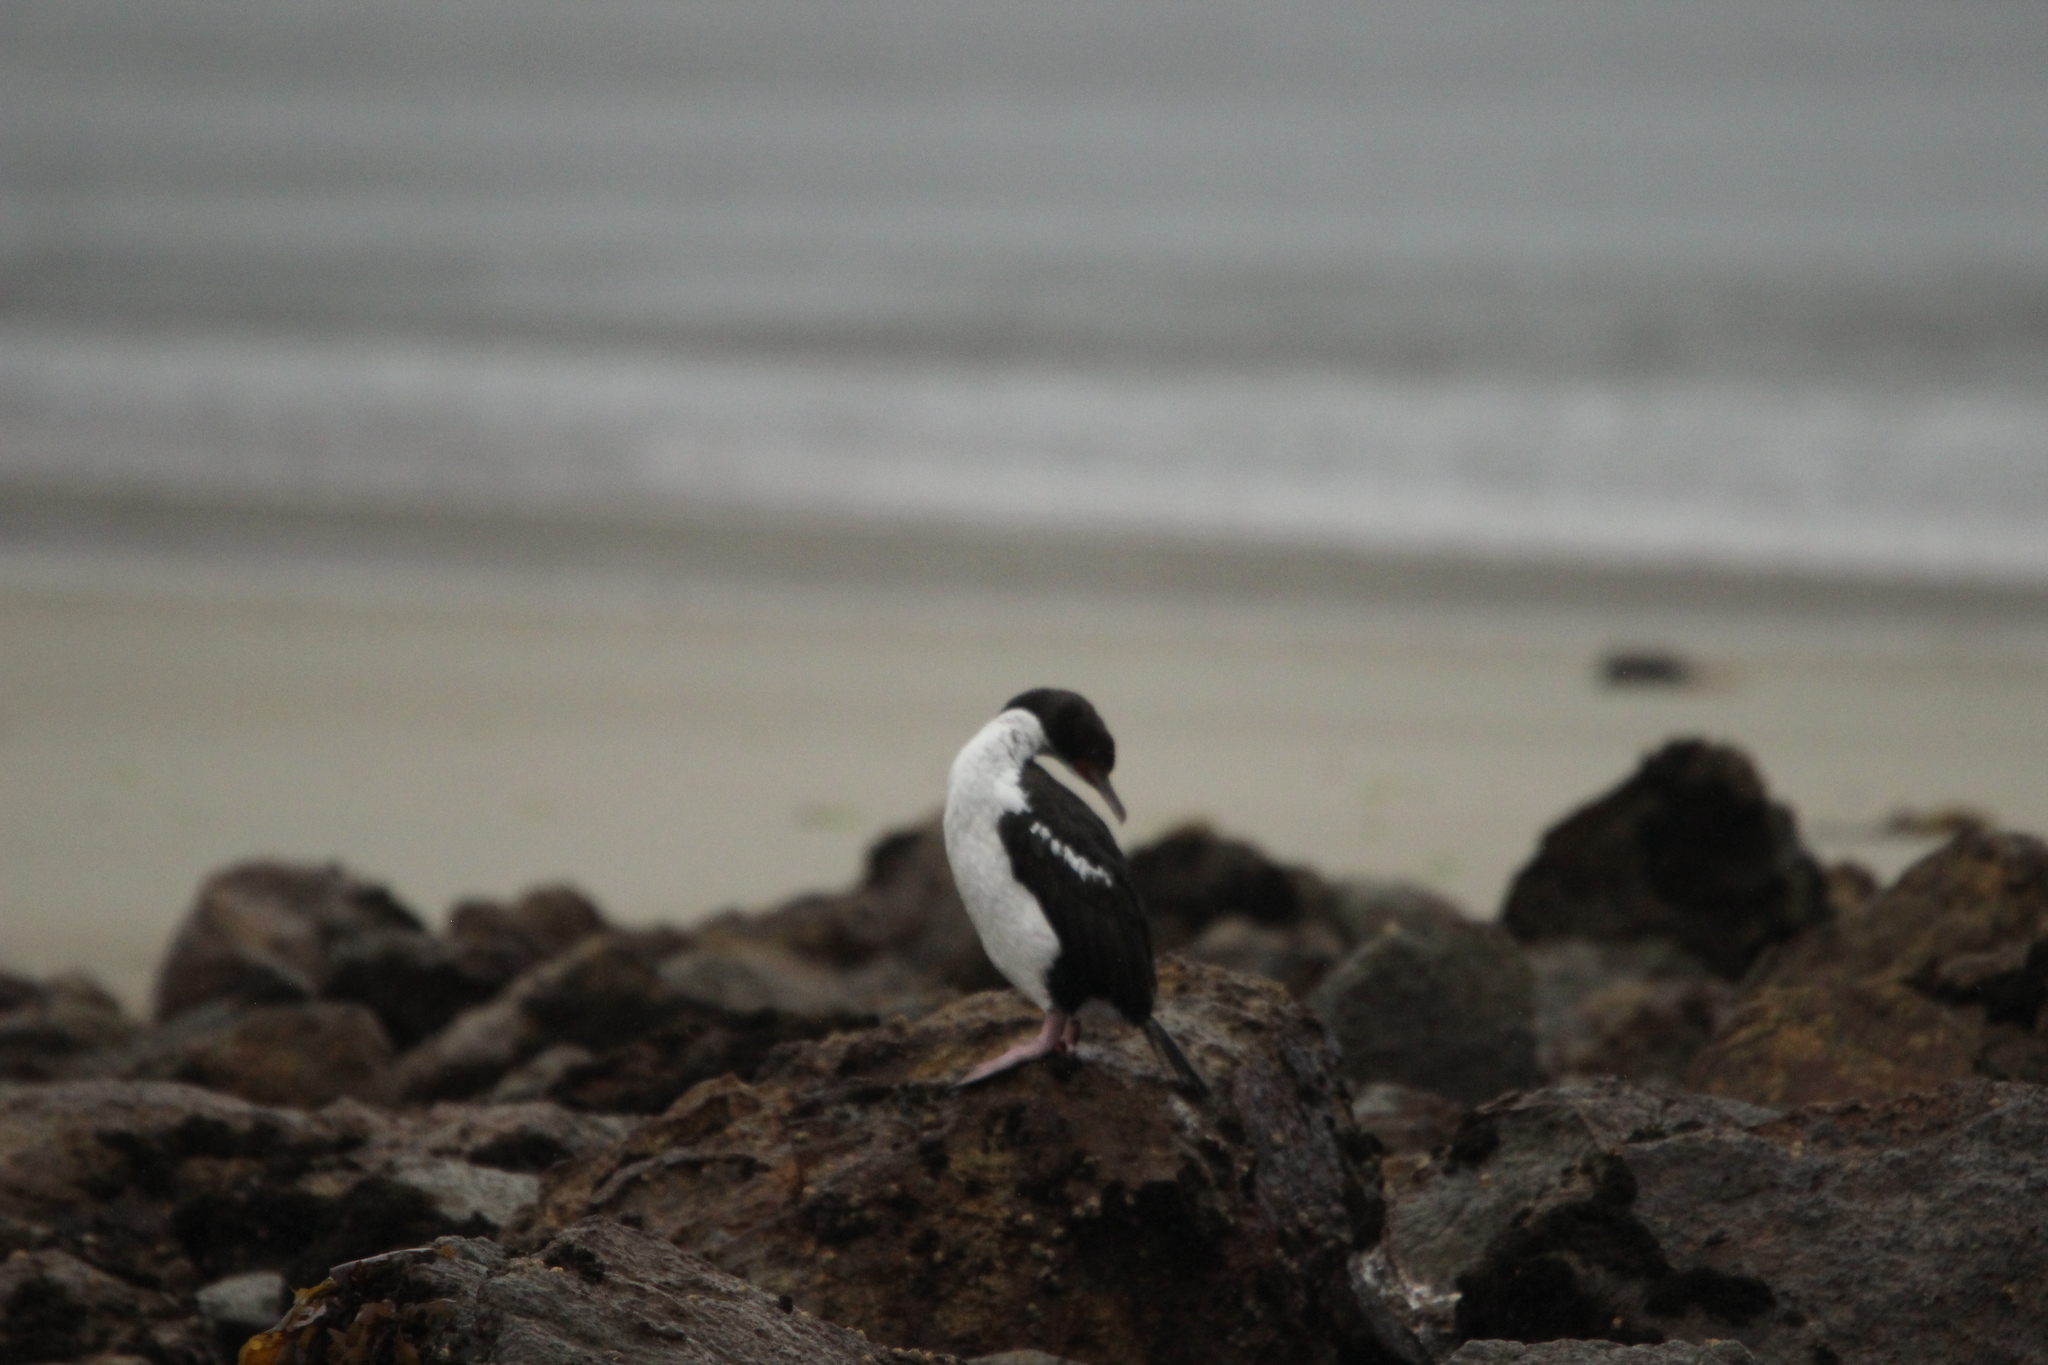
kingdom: Animalia
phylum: Chordata
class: Aves
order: Suliformes
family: Phalacrocoracidae
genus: Leucocarbo
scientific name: Leucocarbo chalconotus
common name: Stewart shag
